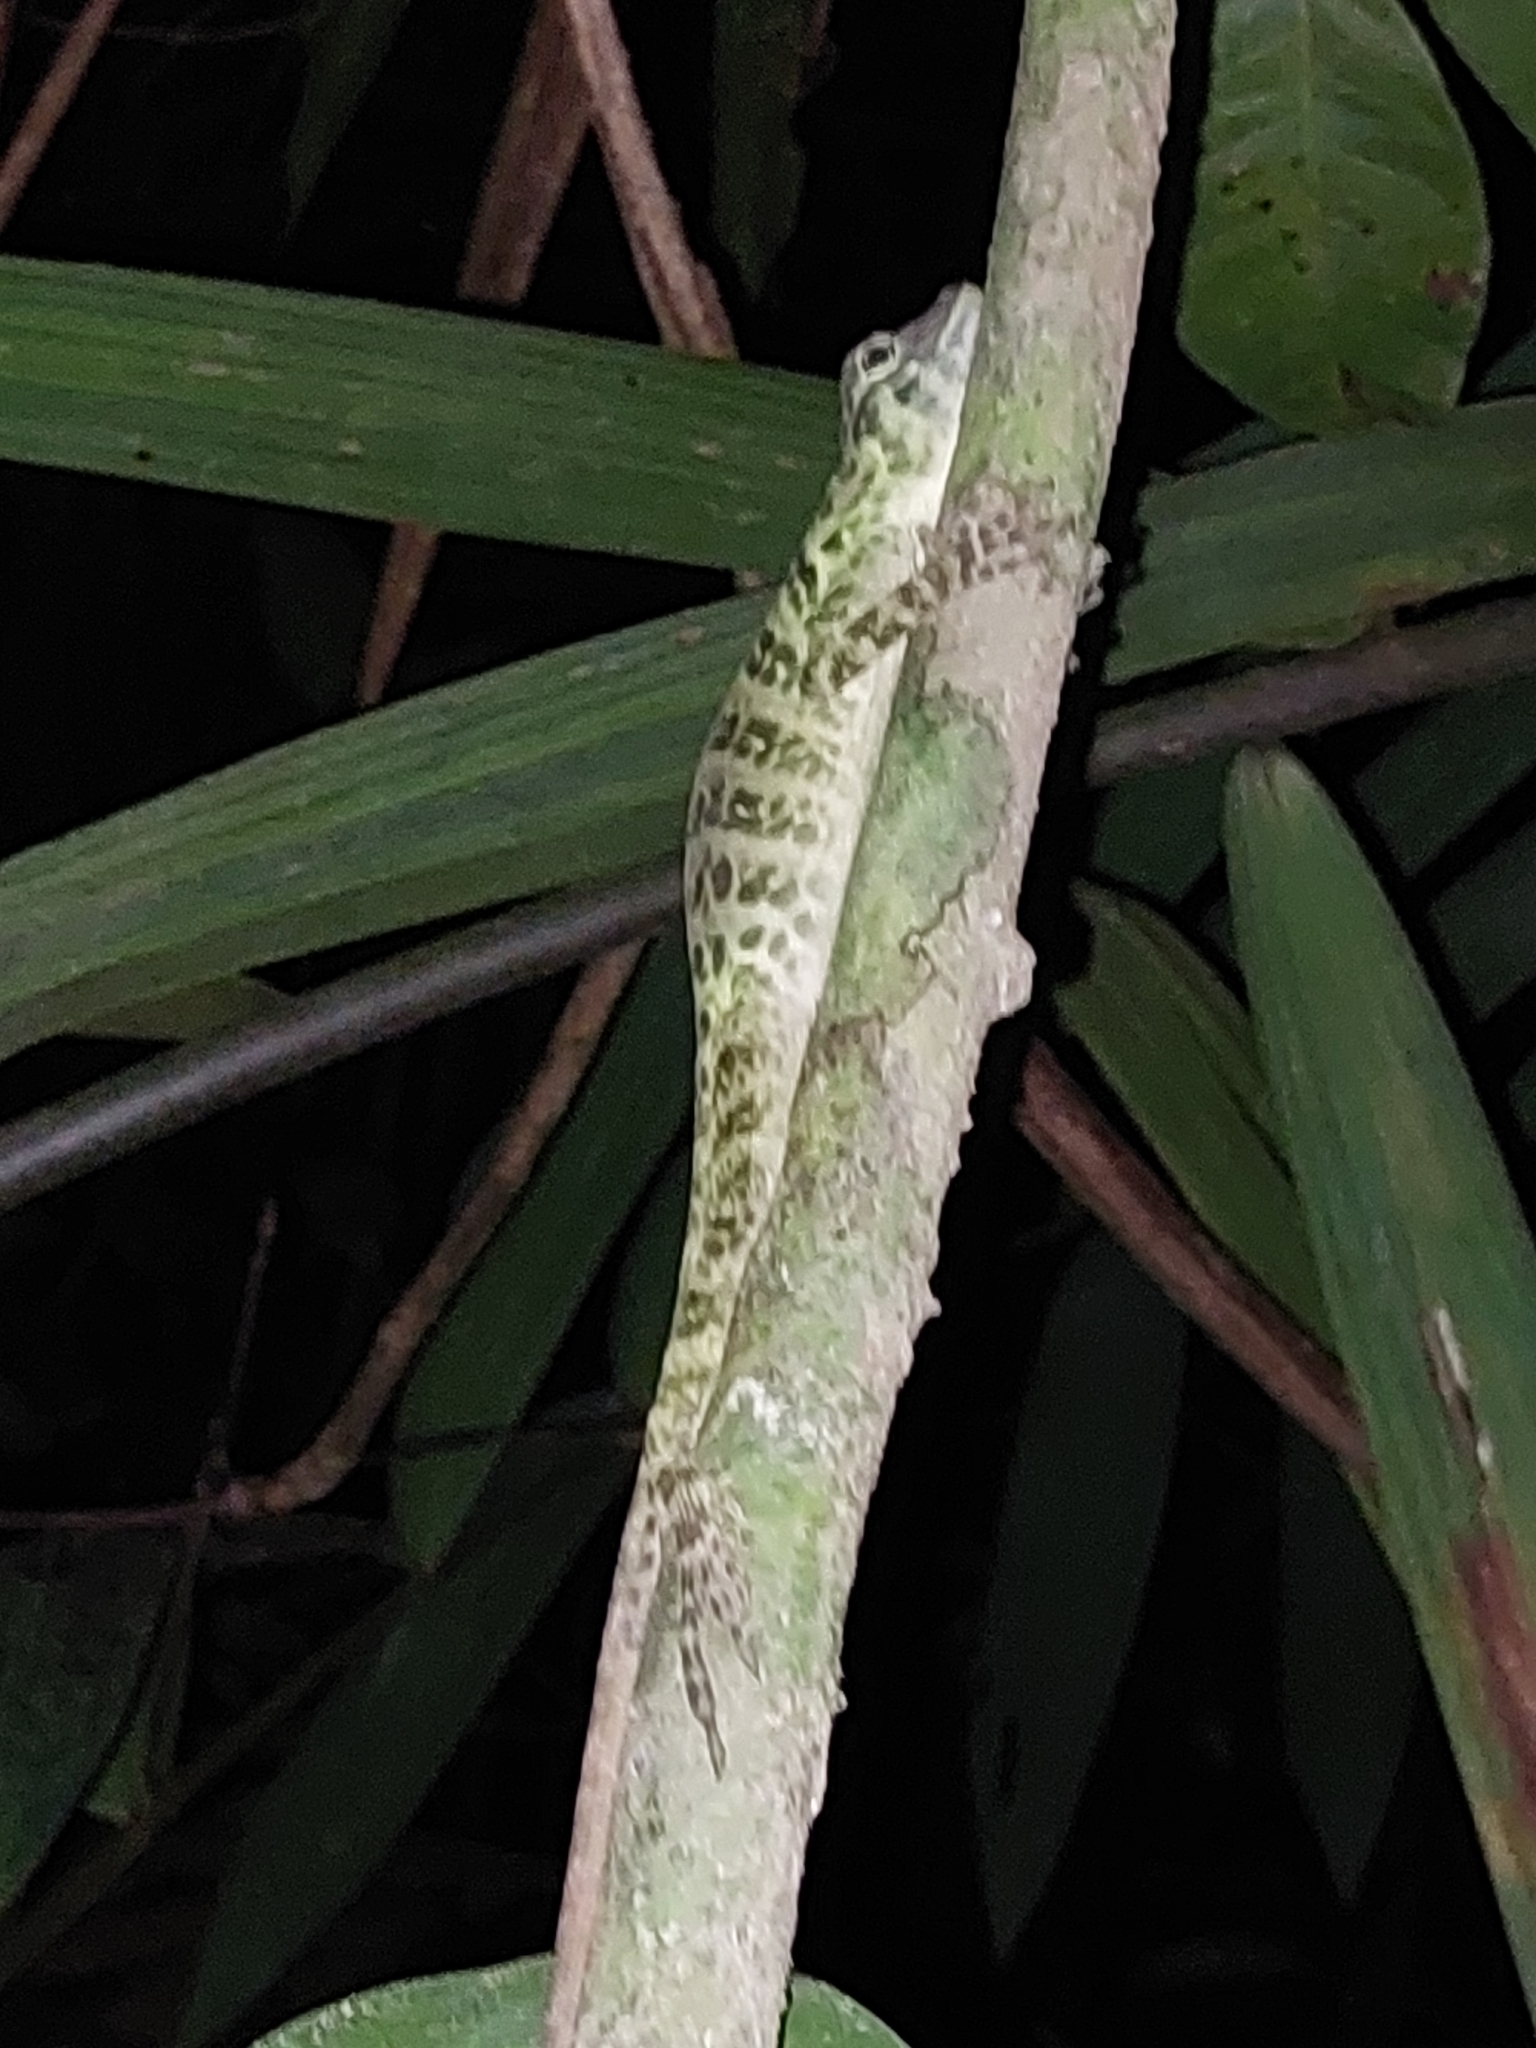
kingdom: Animalia
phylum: Chordata
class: Squamata
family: Dactyloidae
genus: Anolis
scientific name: Anolis frenatus
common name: Bridled anole
